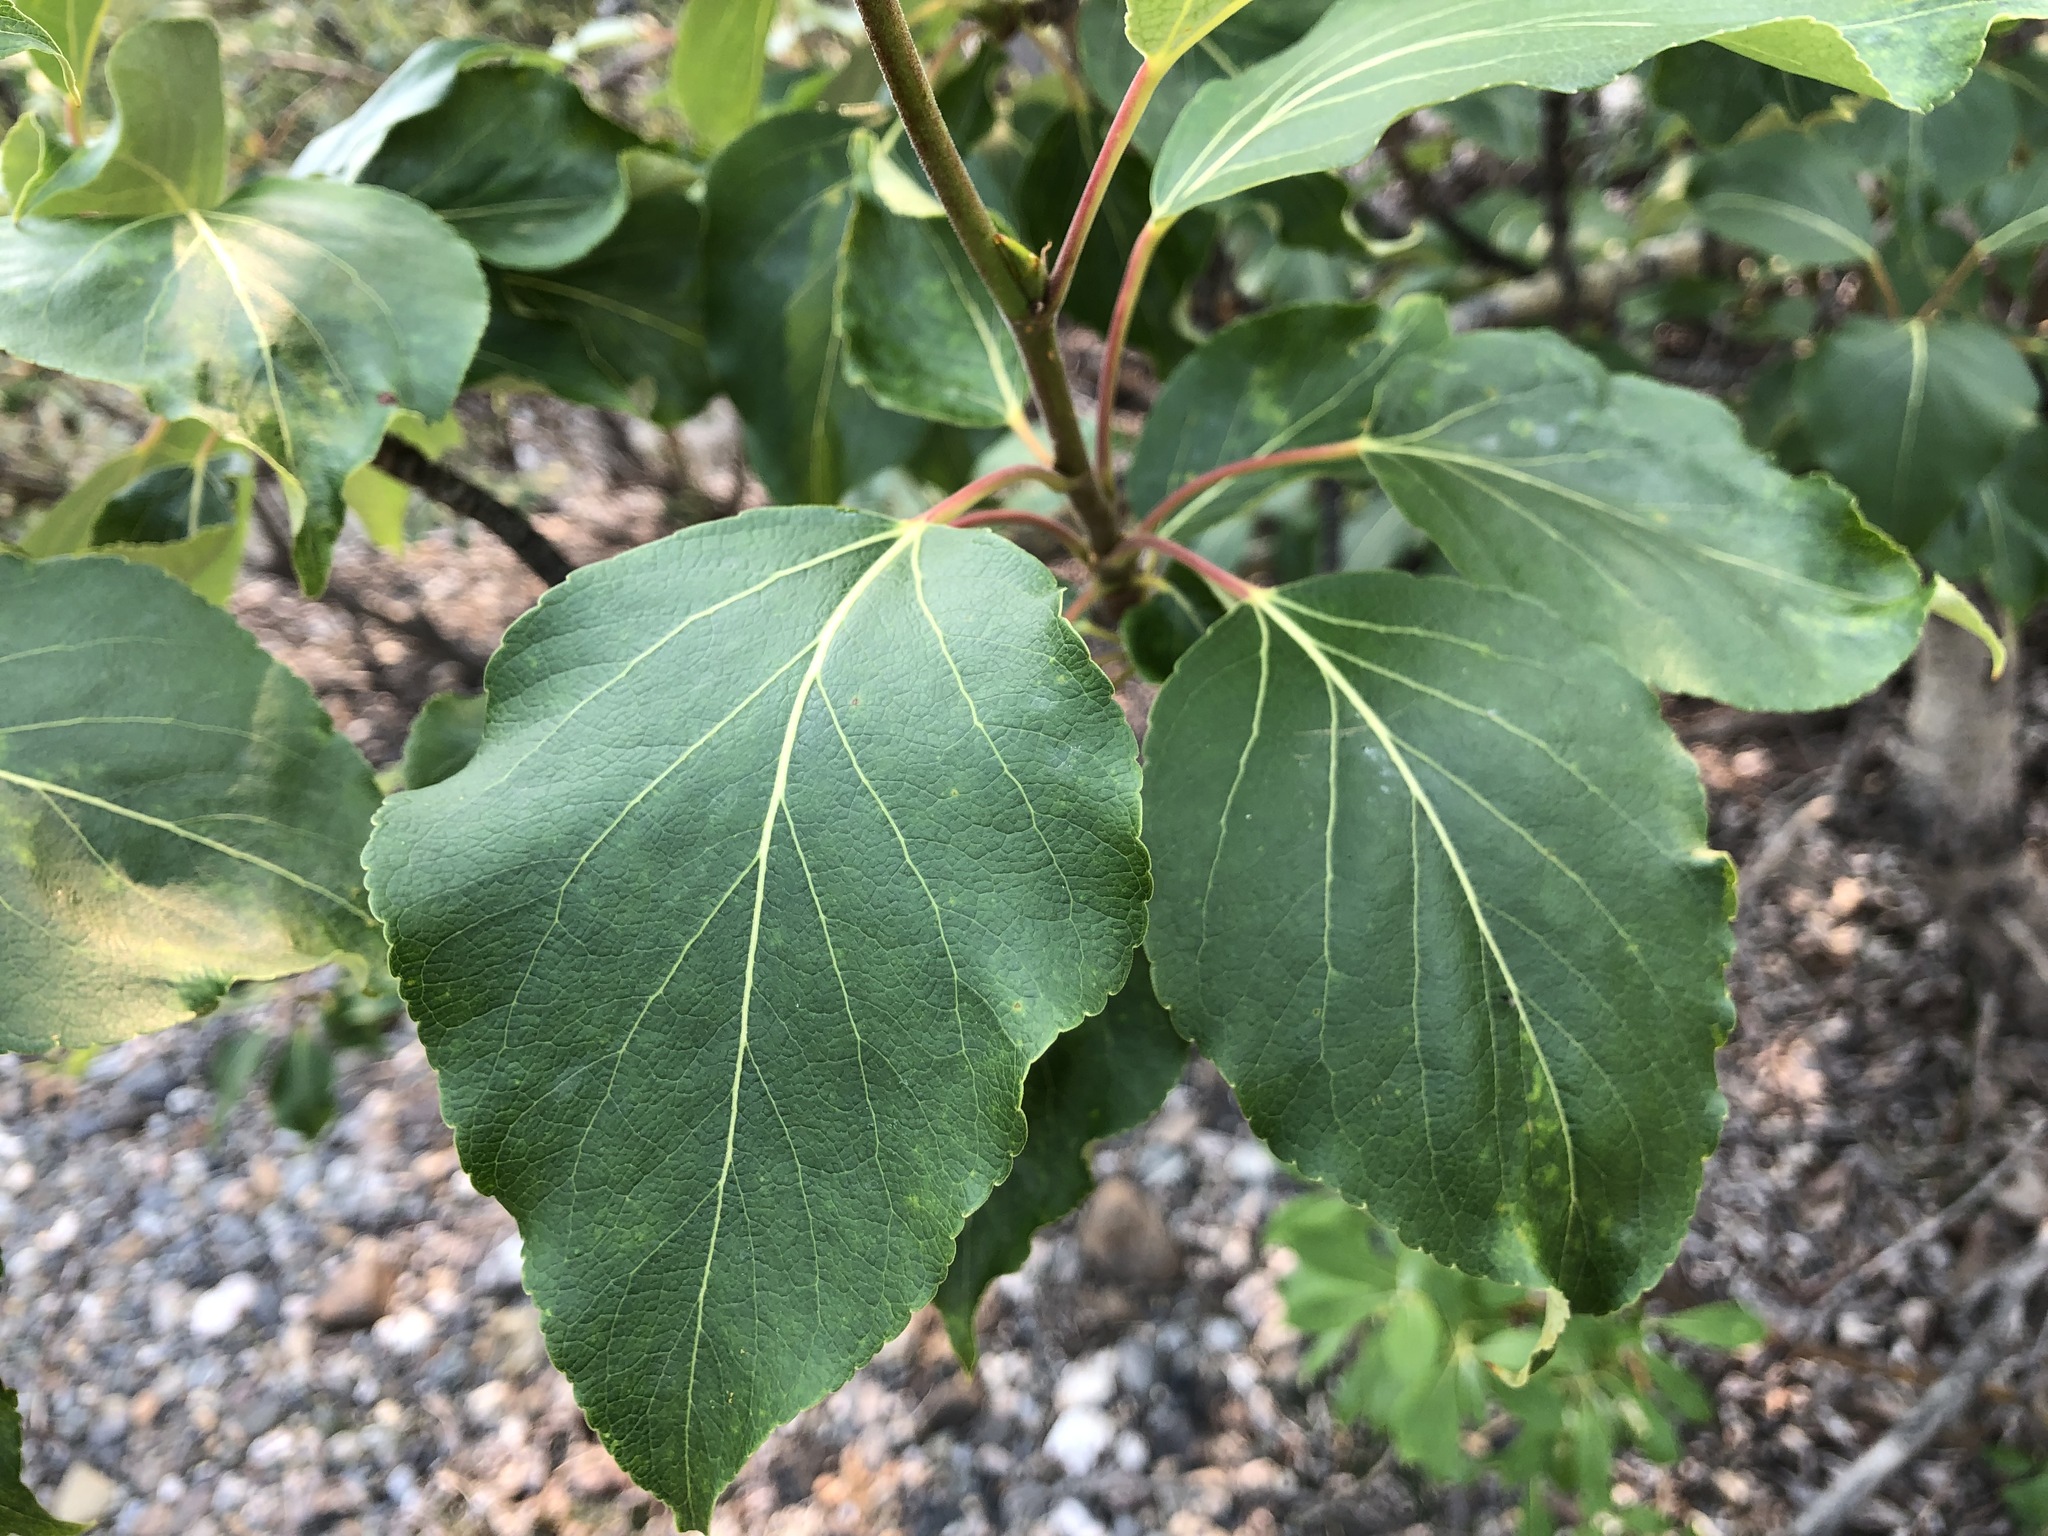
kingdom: Plantae
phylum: Tracheophyta
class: Magnoliopsida
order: Malpighiales
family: Salicaceae
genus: Populus
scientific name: Populus balsamifera
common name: Balsam poplar
